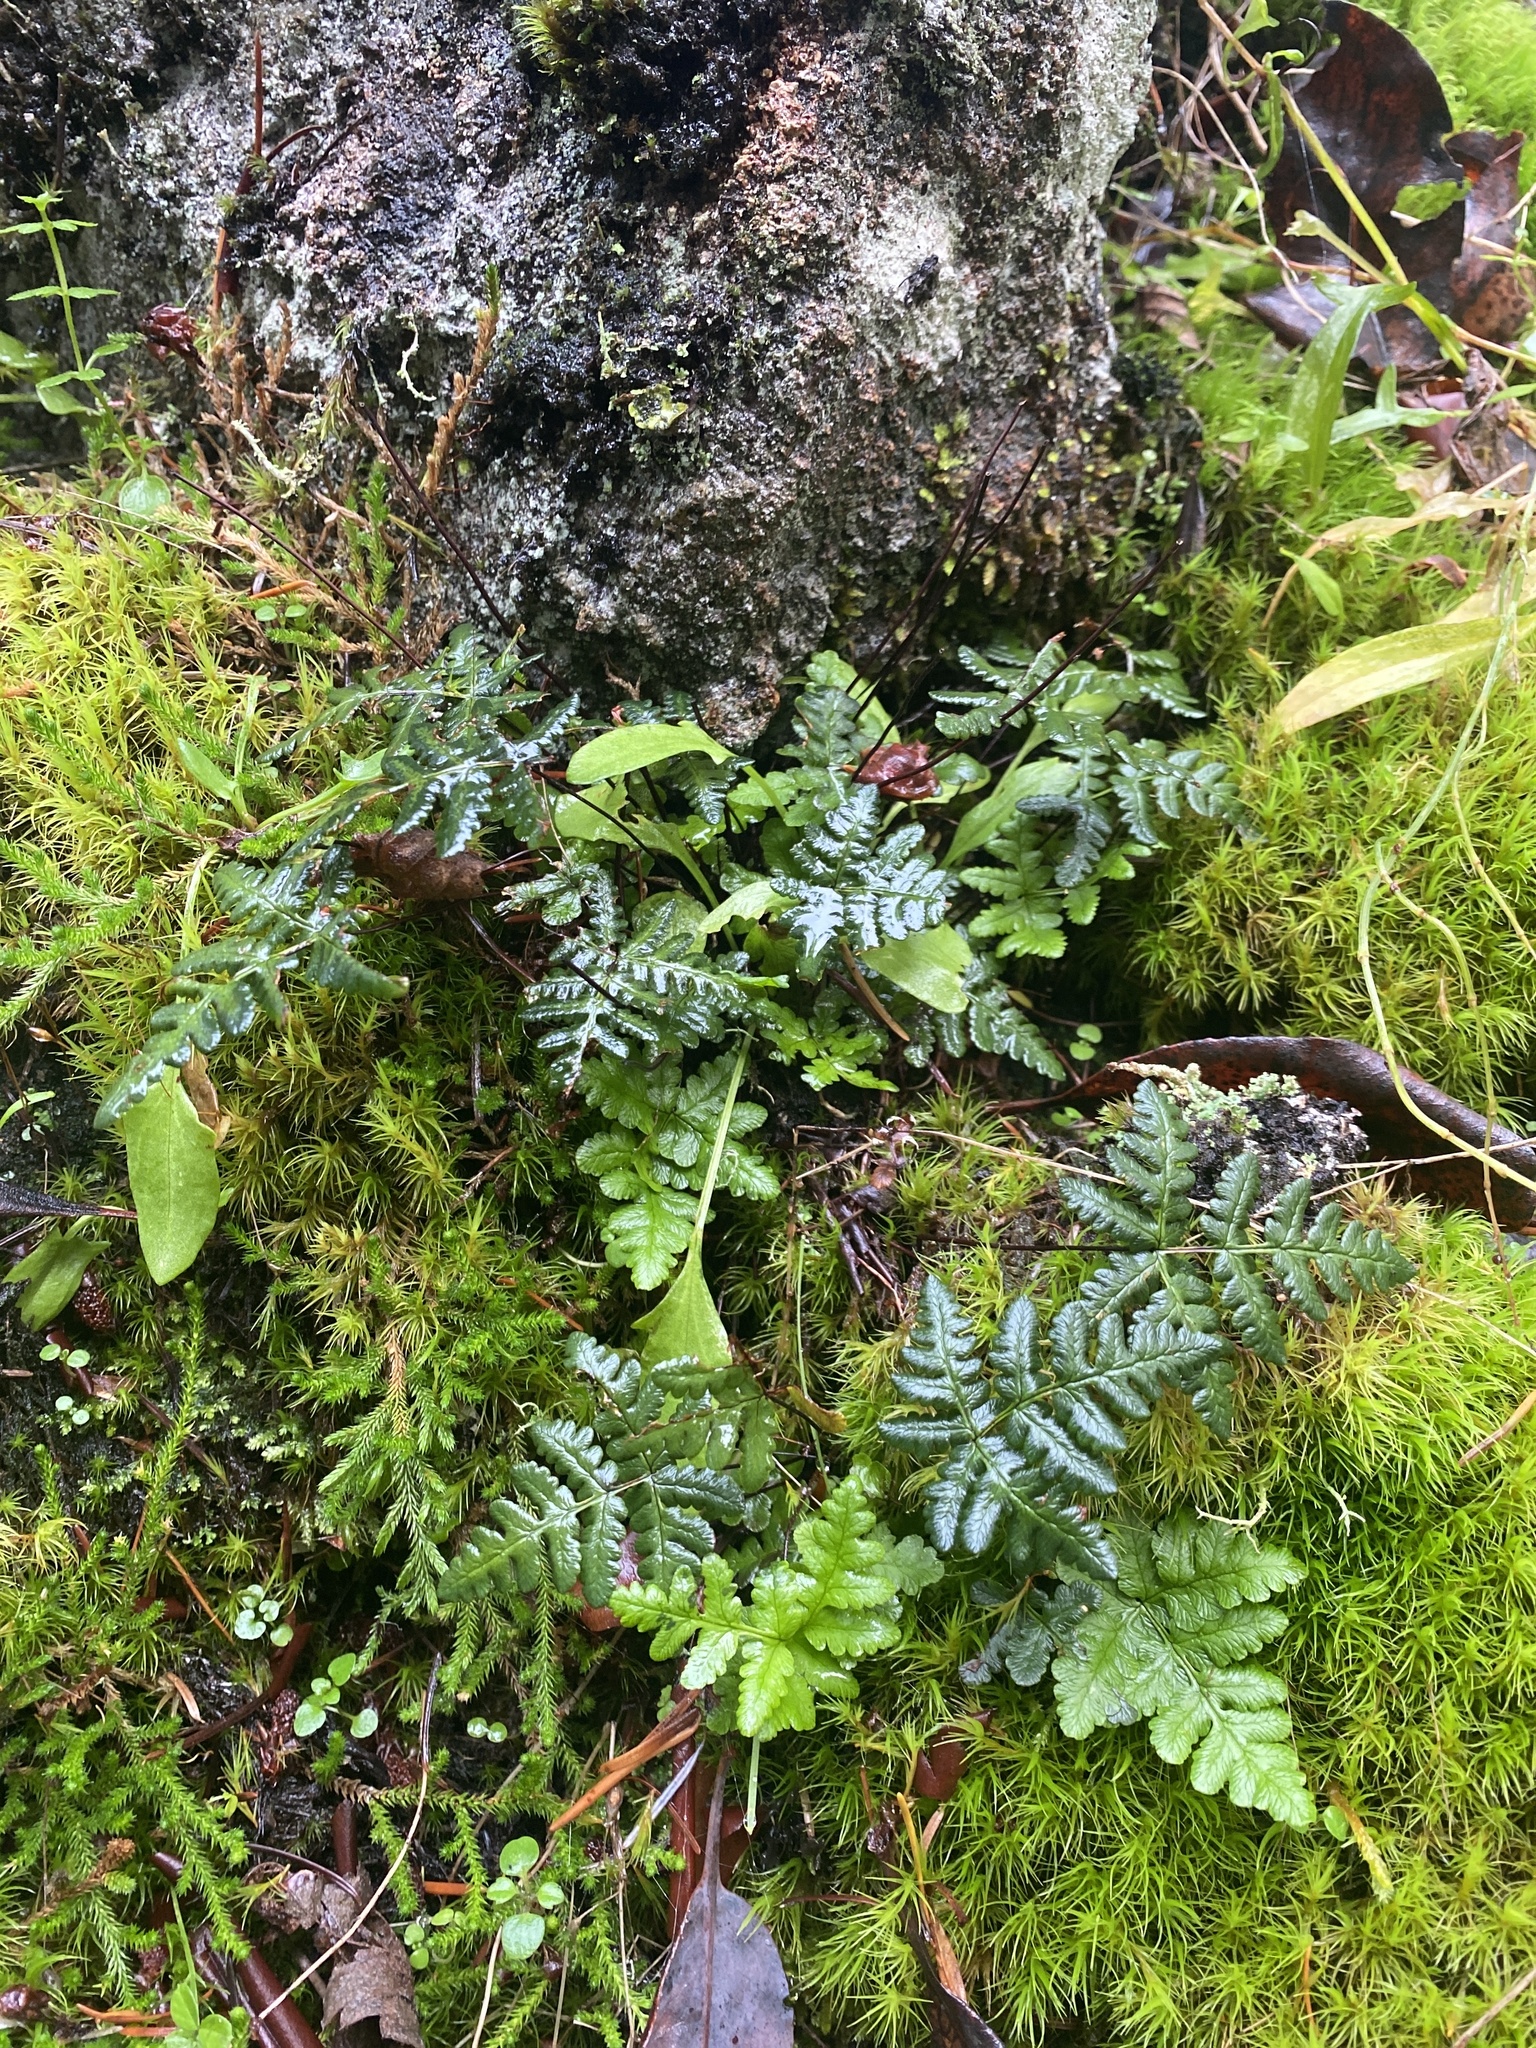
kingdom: Plantae
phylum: Tracheophyta
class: Polypodiopsida
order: Polypodiales
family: Pteridaceae
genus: Pentagramma
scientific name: Pentagramma triangularis
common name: Gold fern
